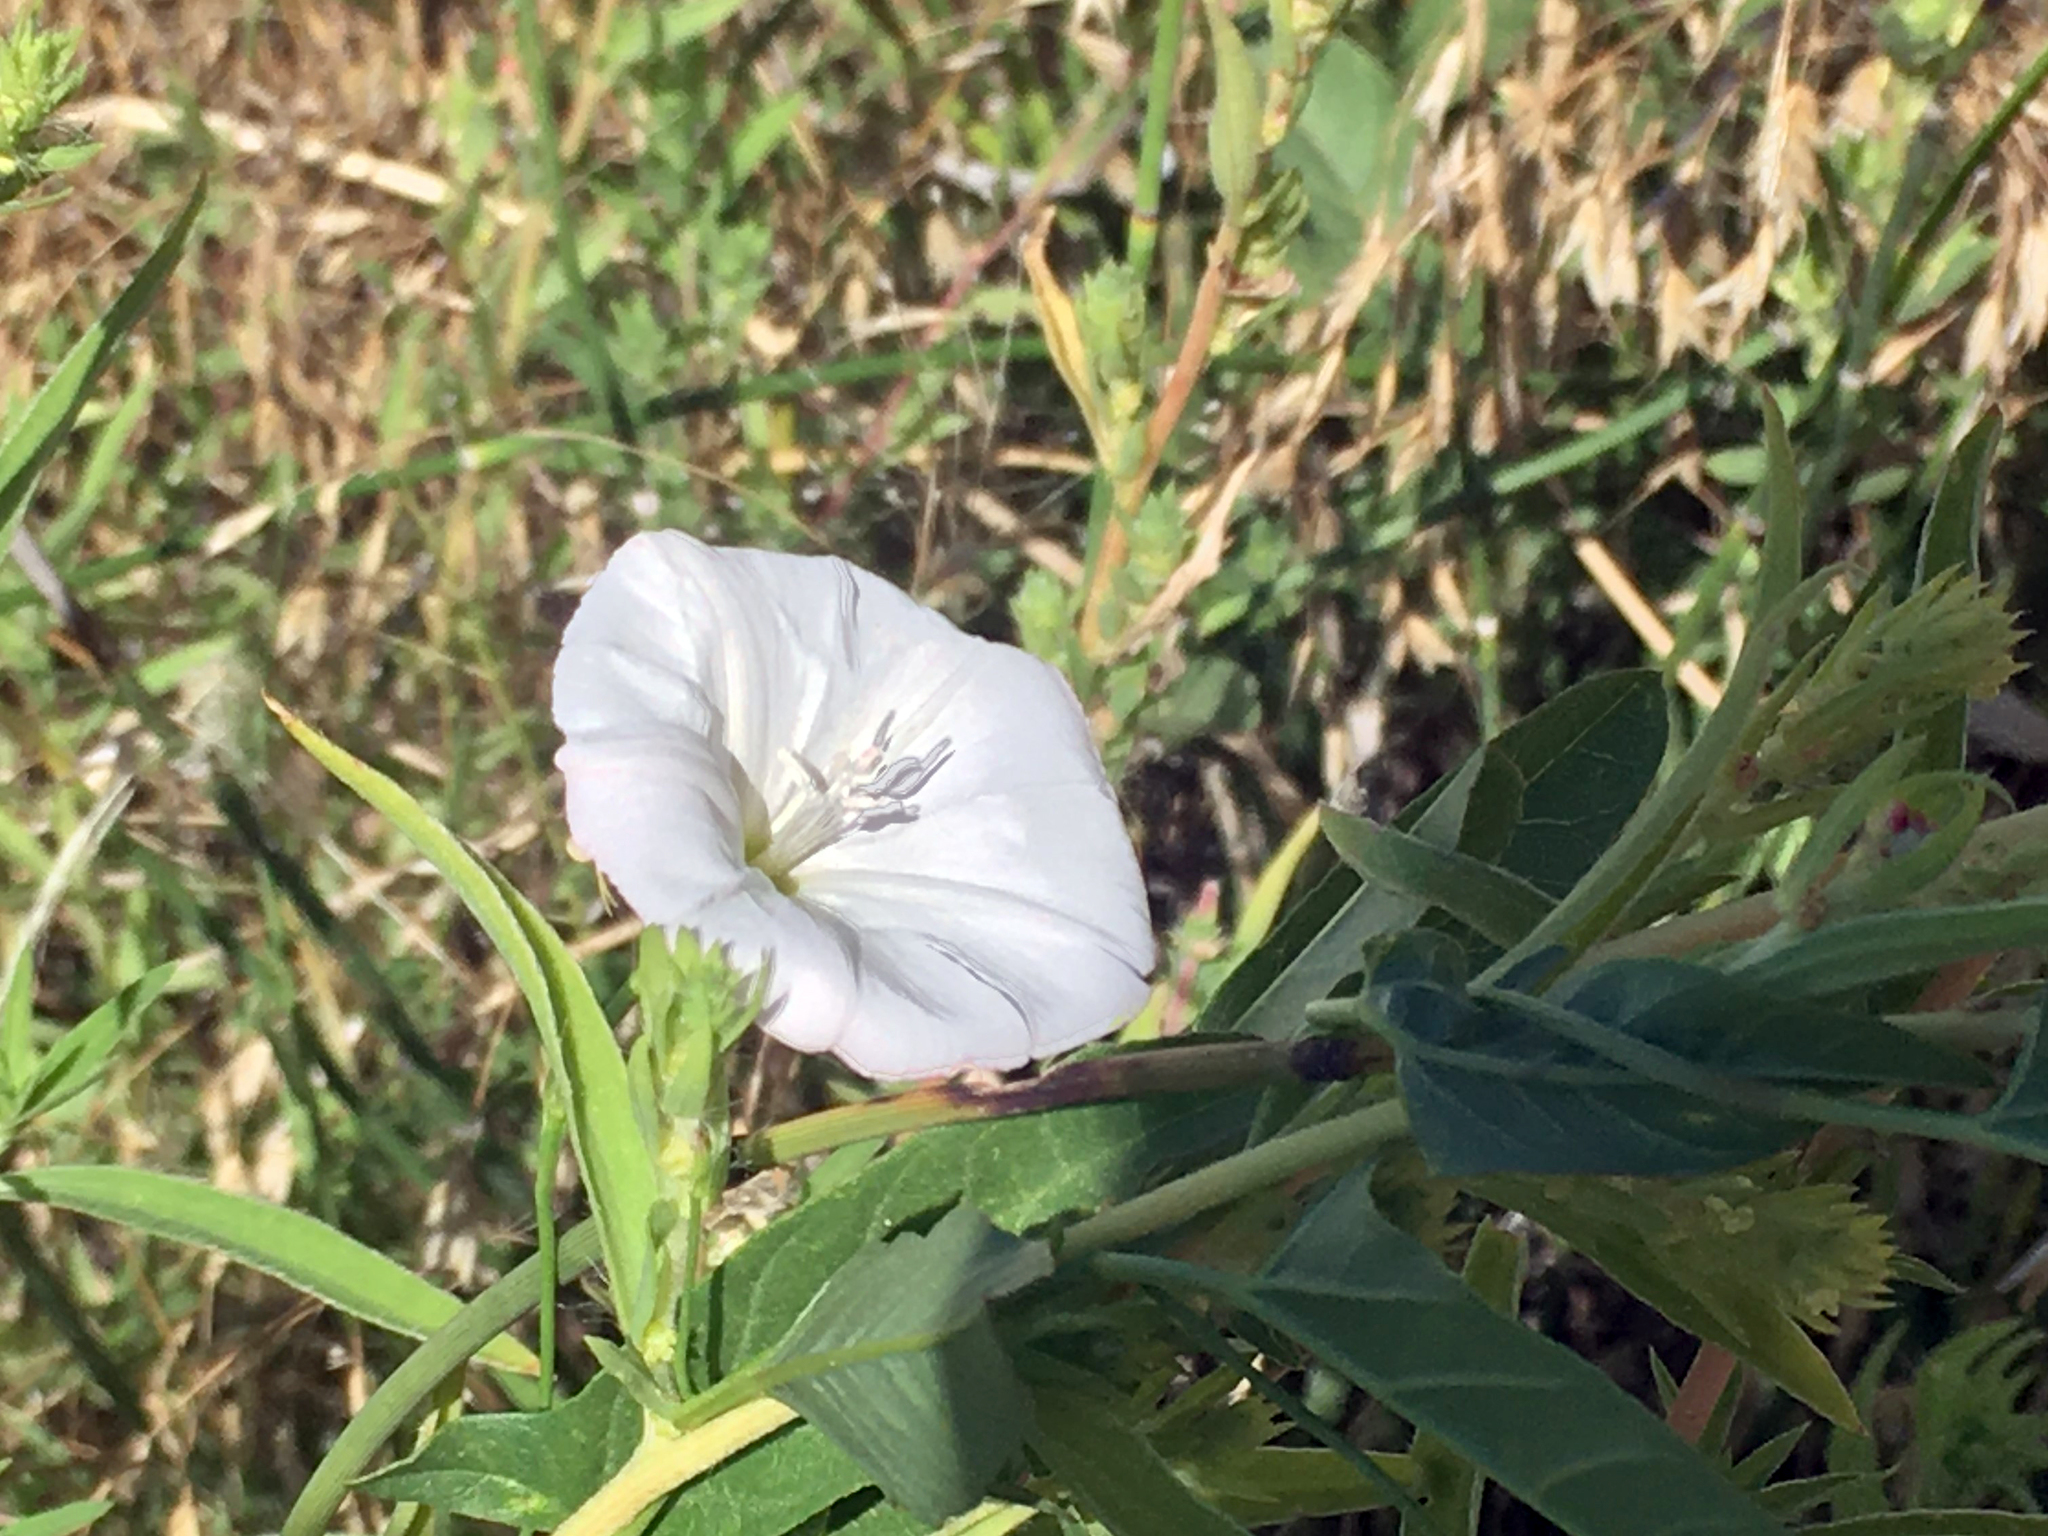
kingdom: Plantae
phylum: Tracheophyta
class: Magnoliopsida
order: Solanales
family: Convolvulaceae
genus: Convolvulus
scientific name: Convolvulus arvensis
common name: Field bindweed
